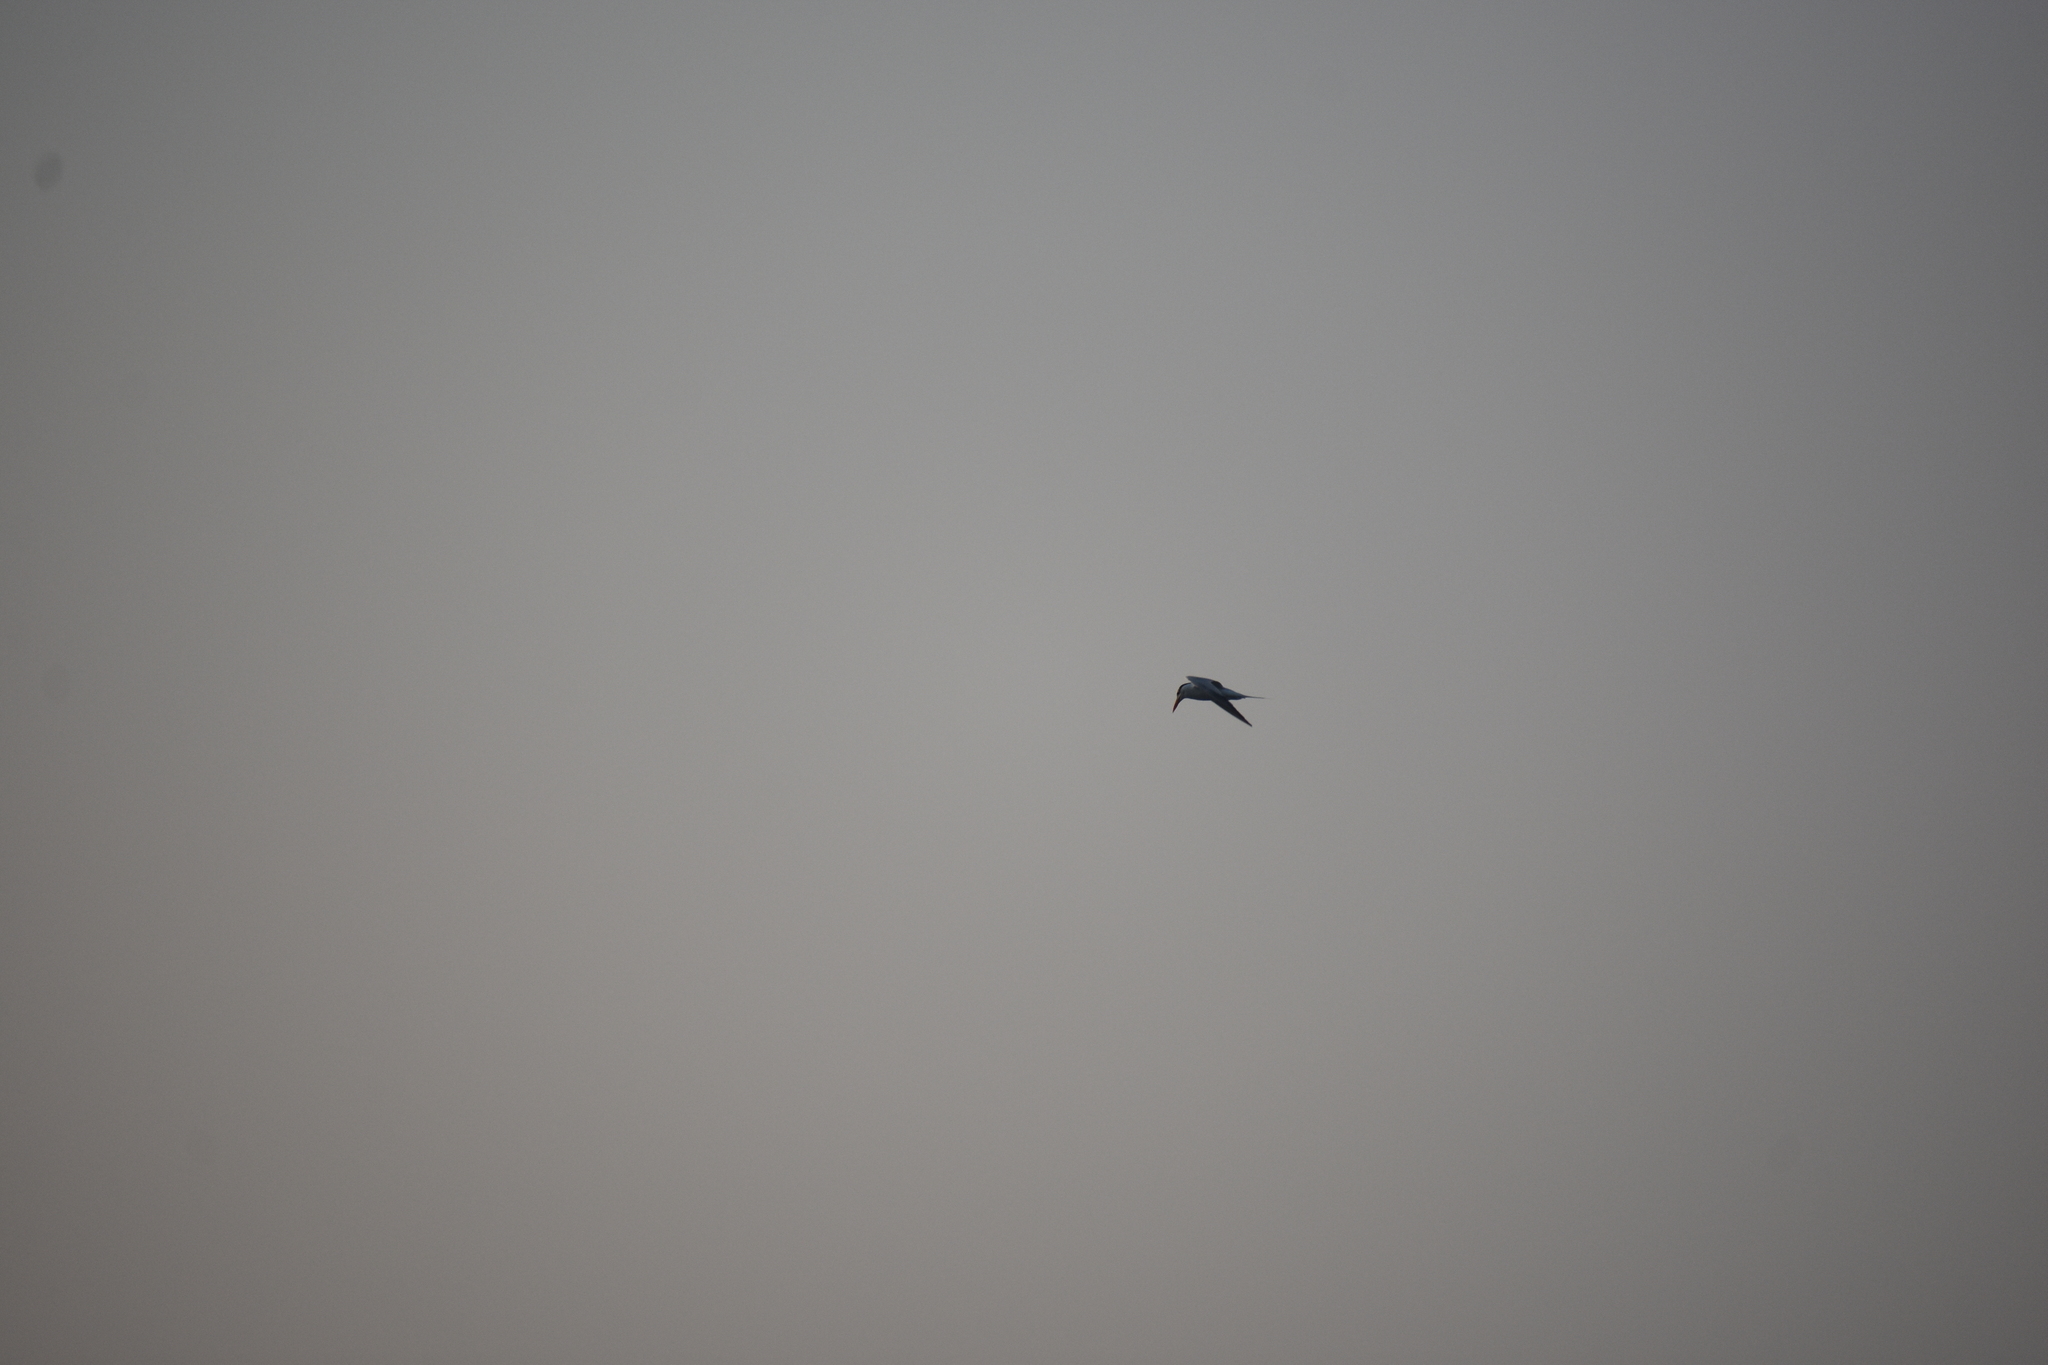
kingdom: Animalia
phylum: Chordata
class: Aves
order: Charadriiformes
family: Laridae
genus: Thalasseus
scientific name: Thalasseus maximus
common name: Royal tern
